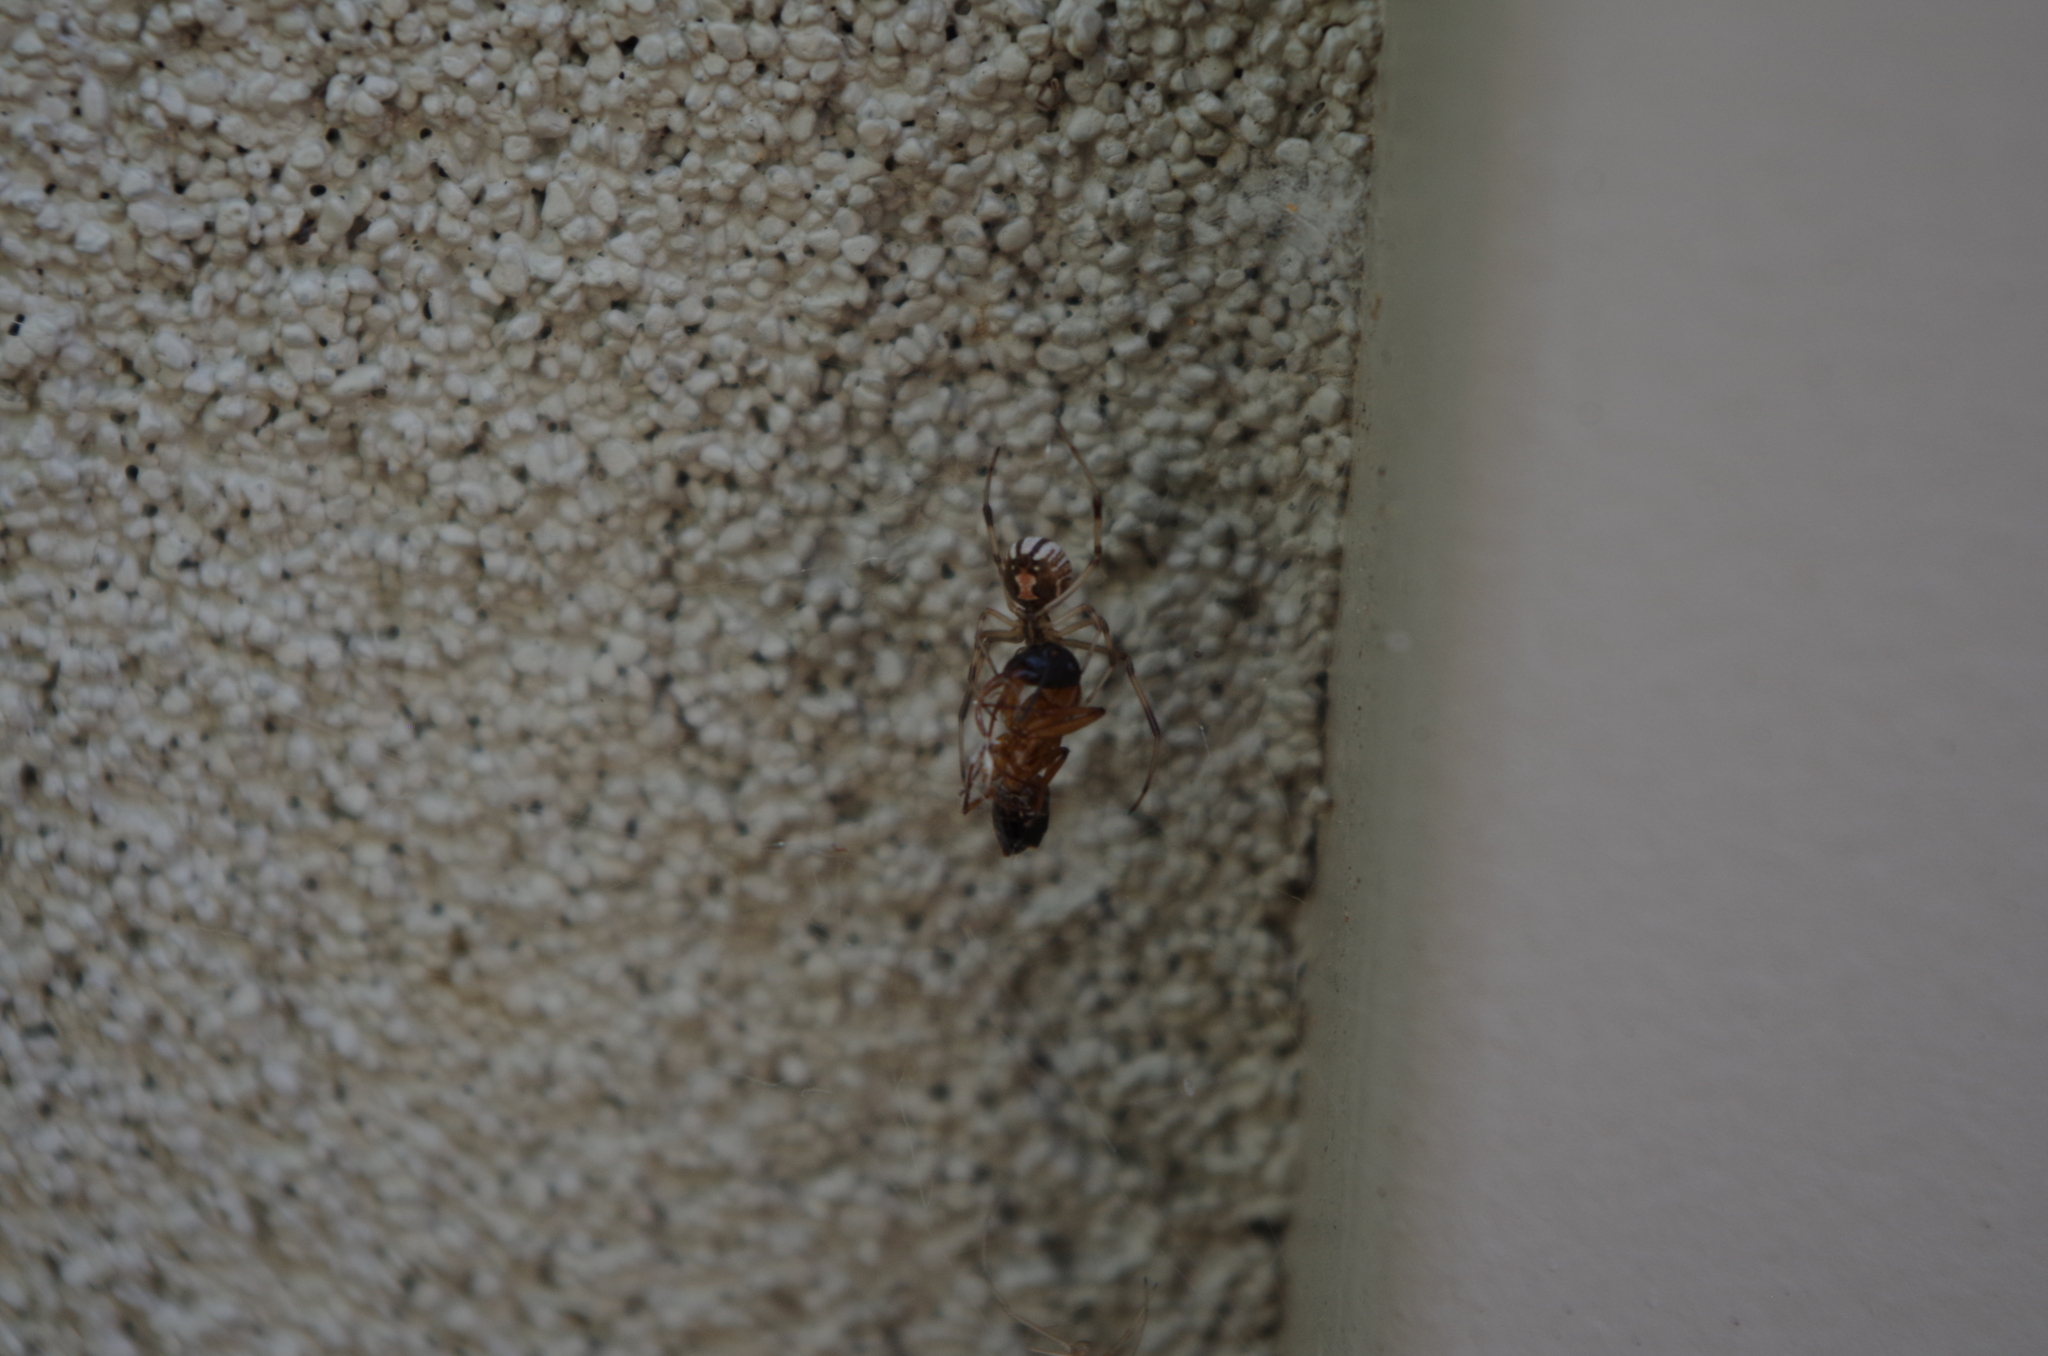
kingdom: Animalia
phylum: Arthropoda
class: Arachnida
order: Araneae
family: Theridiidae
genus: Latrodectus
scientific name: Latrodectus hasselti
